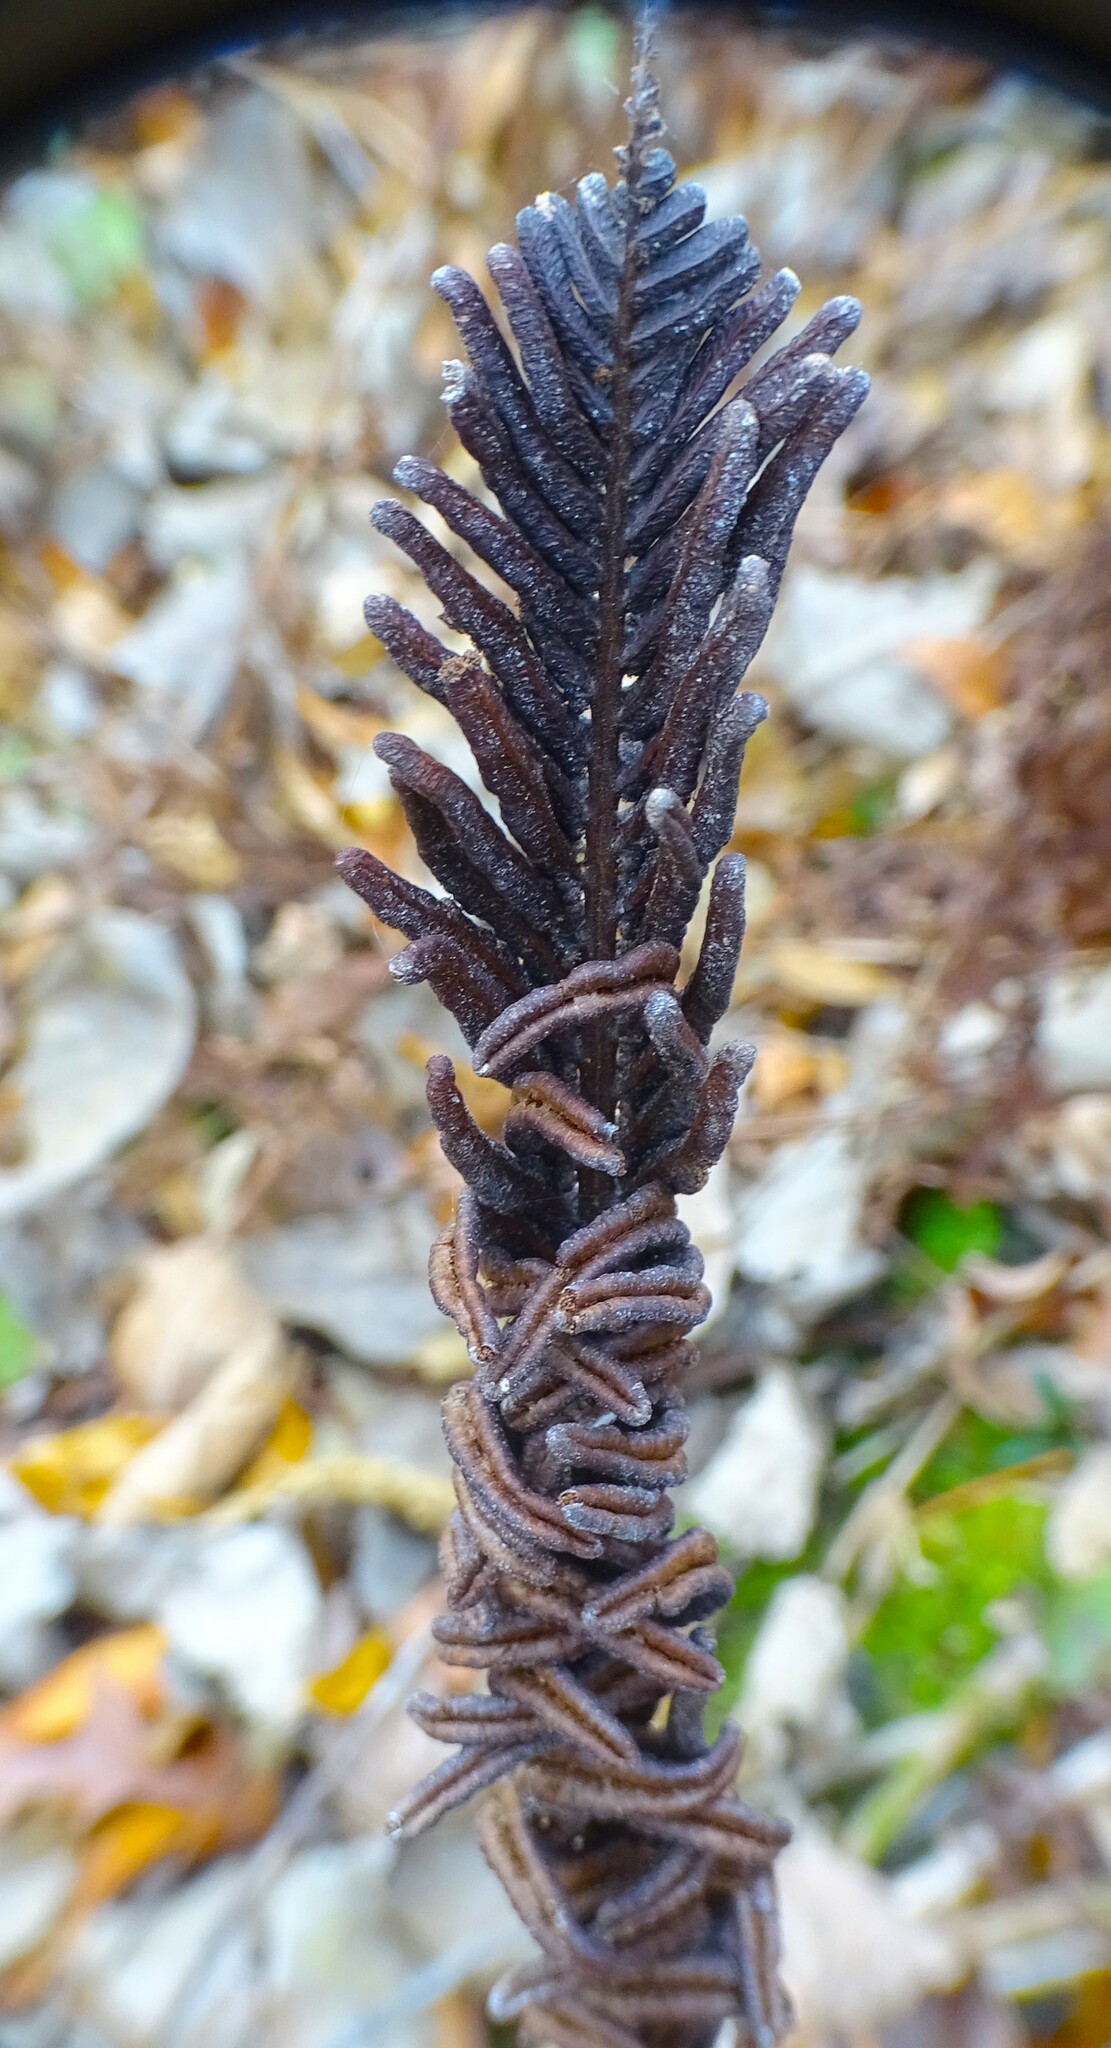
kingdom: Plantae
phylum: Tracheophyta
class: Polypodiopsida
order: Polypodiales
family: Onocleaceae
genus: Matteuccia
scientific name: Matteuccia struthiopteris
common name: Ostrich fern
